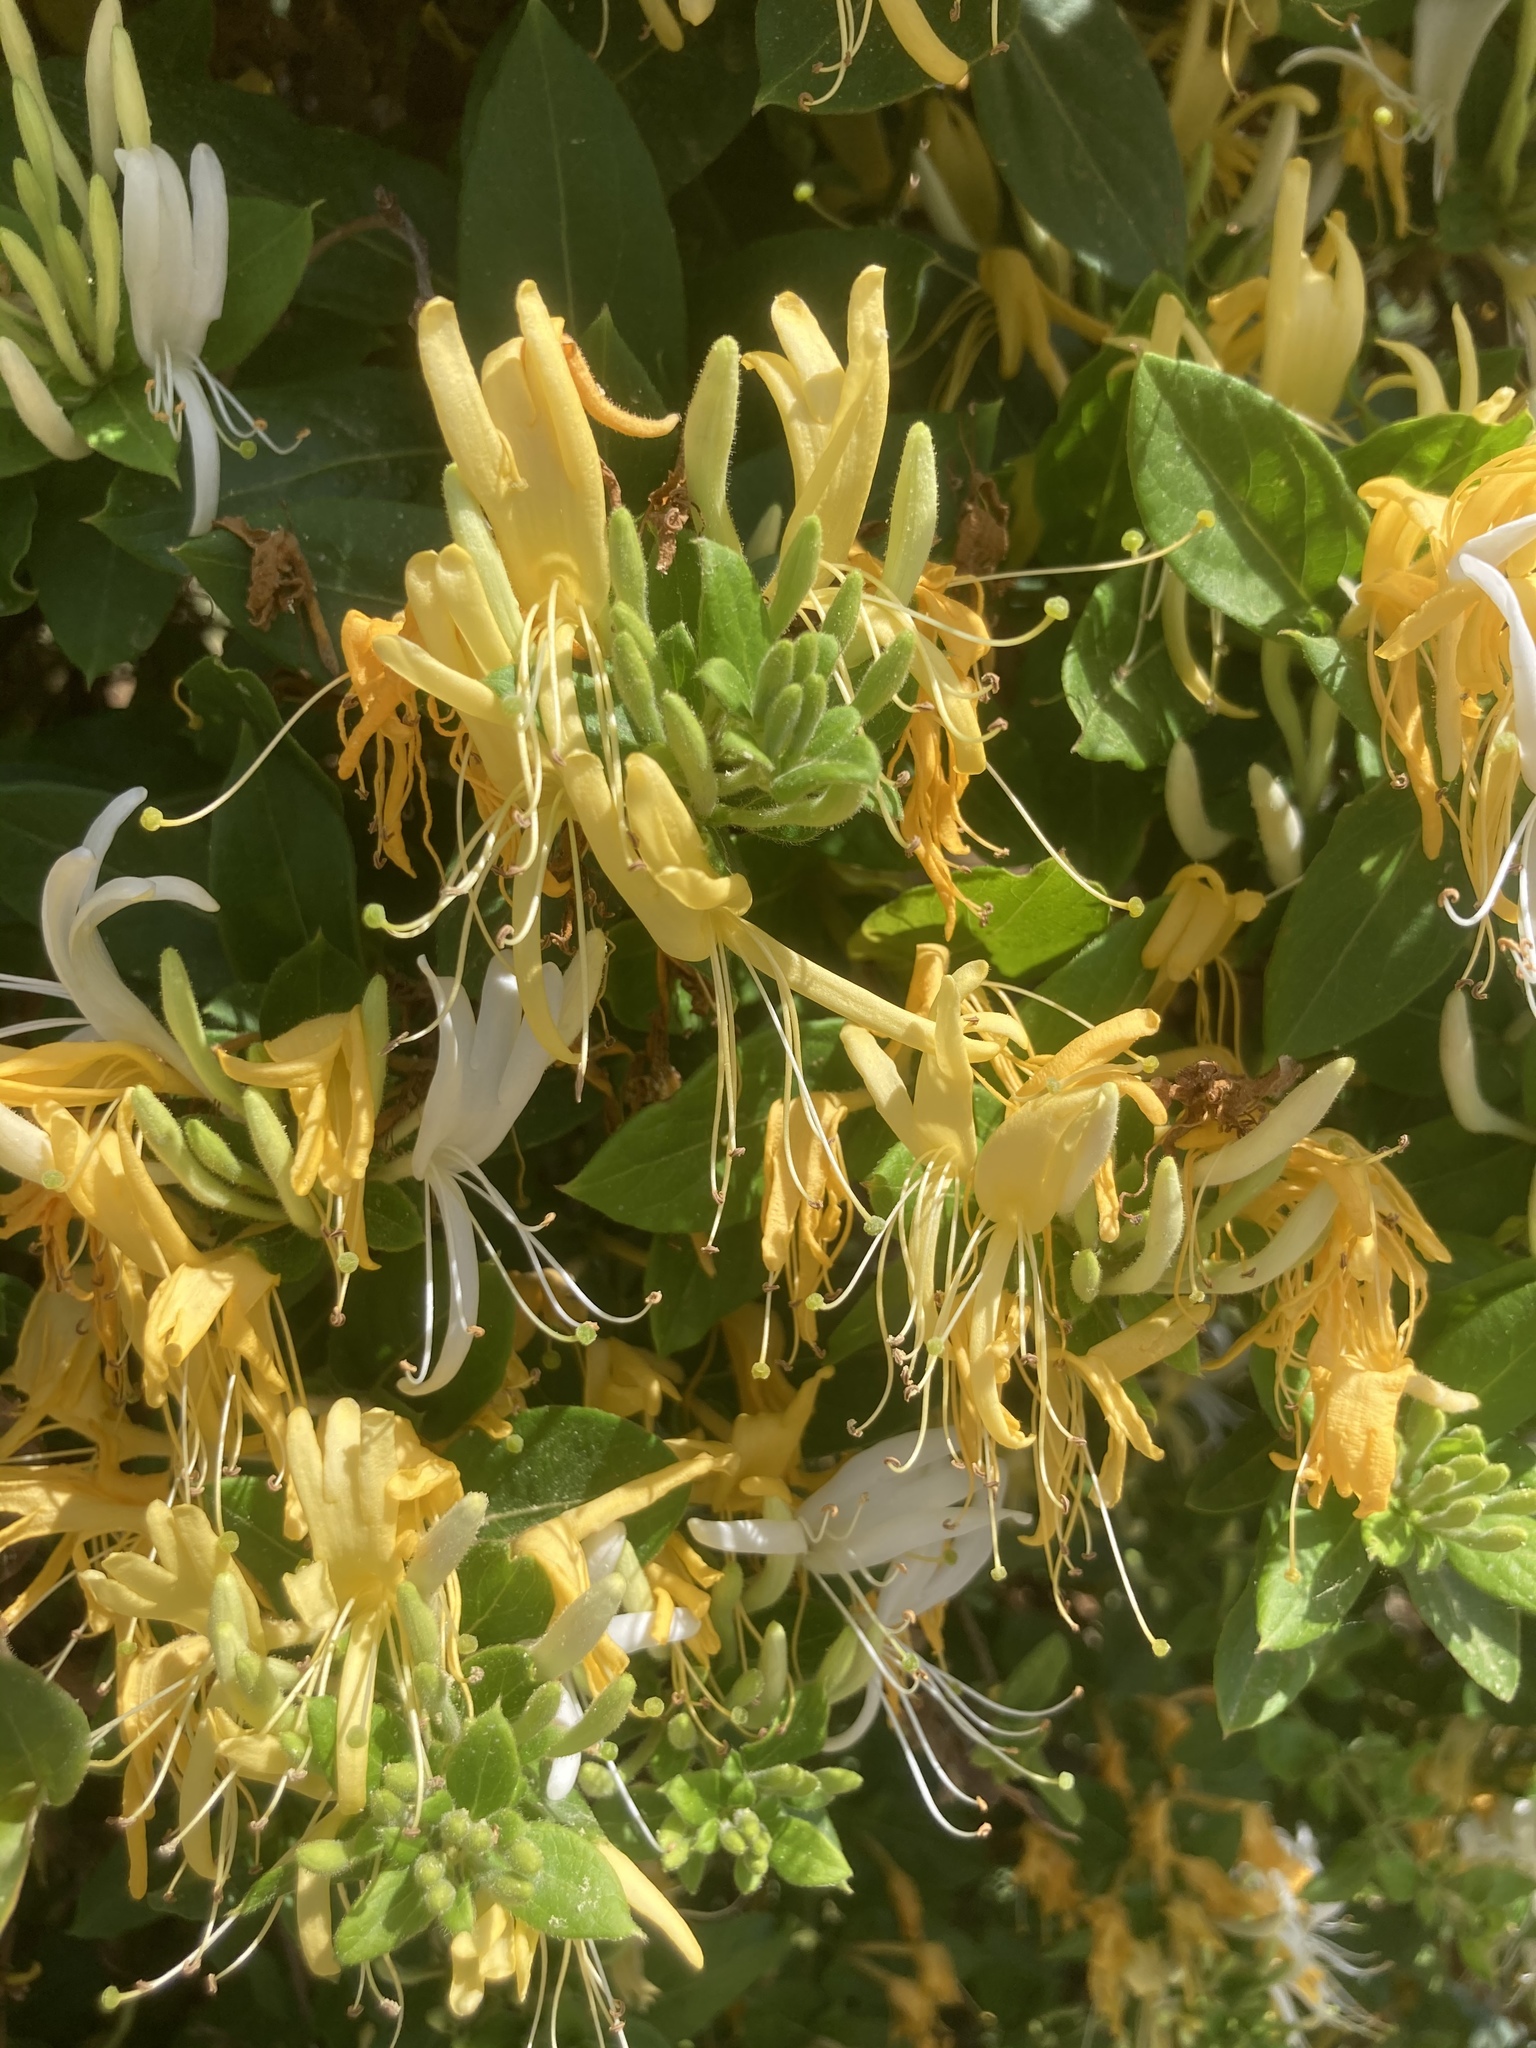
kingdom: Plantae
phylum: Tracheophyta
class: Magnoliopsida
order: Dipsacales
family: Caprifoliaceae
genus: Lonicera
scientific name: Lonicera japonica
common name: Japanese honeysuckle
